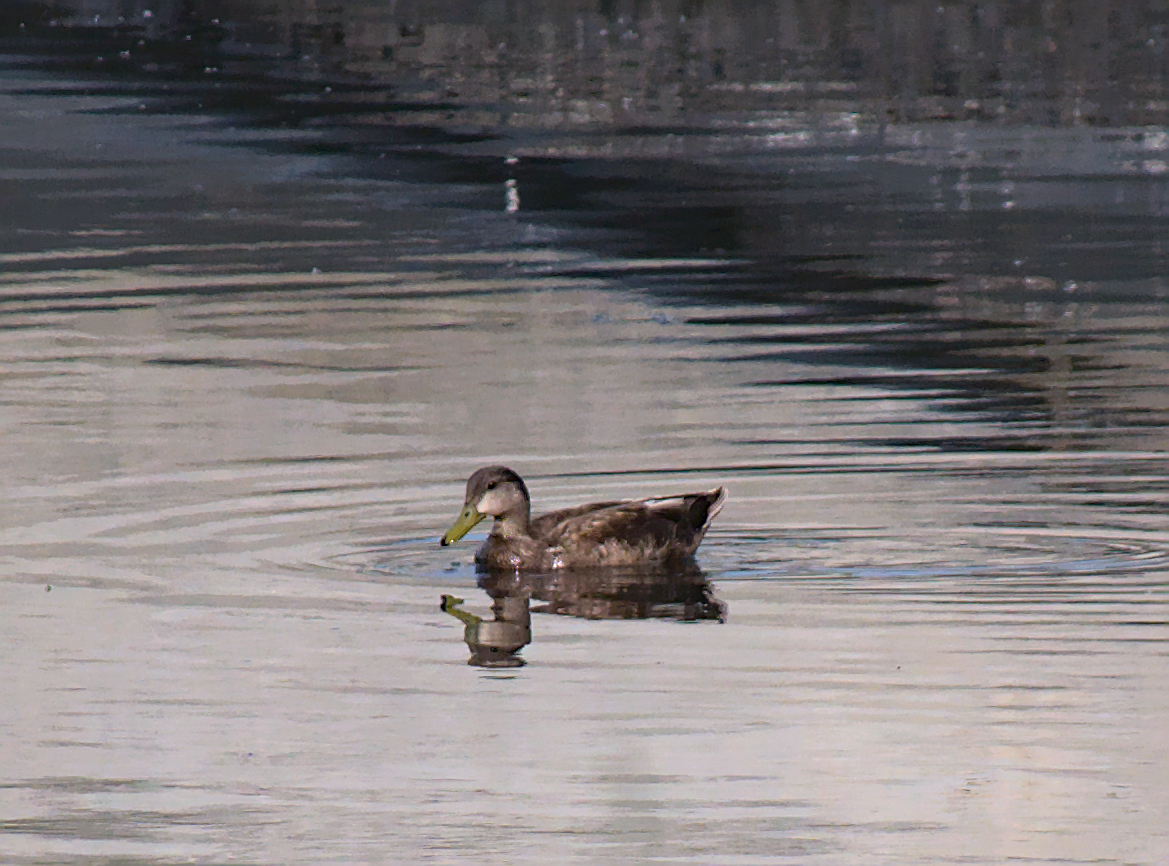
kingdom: Animalia
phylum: Chordata
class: Aves
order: Anseriformes
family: Anatidae
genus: Anas
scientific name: Anas rubripes
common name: American black duck
